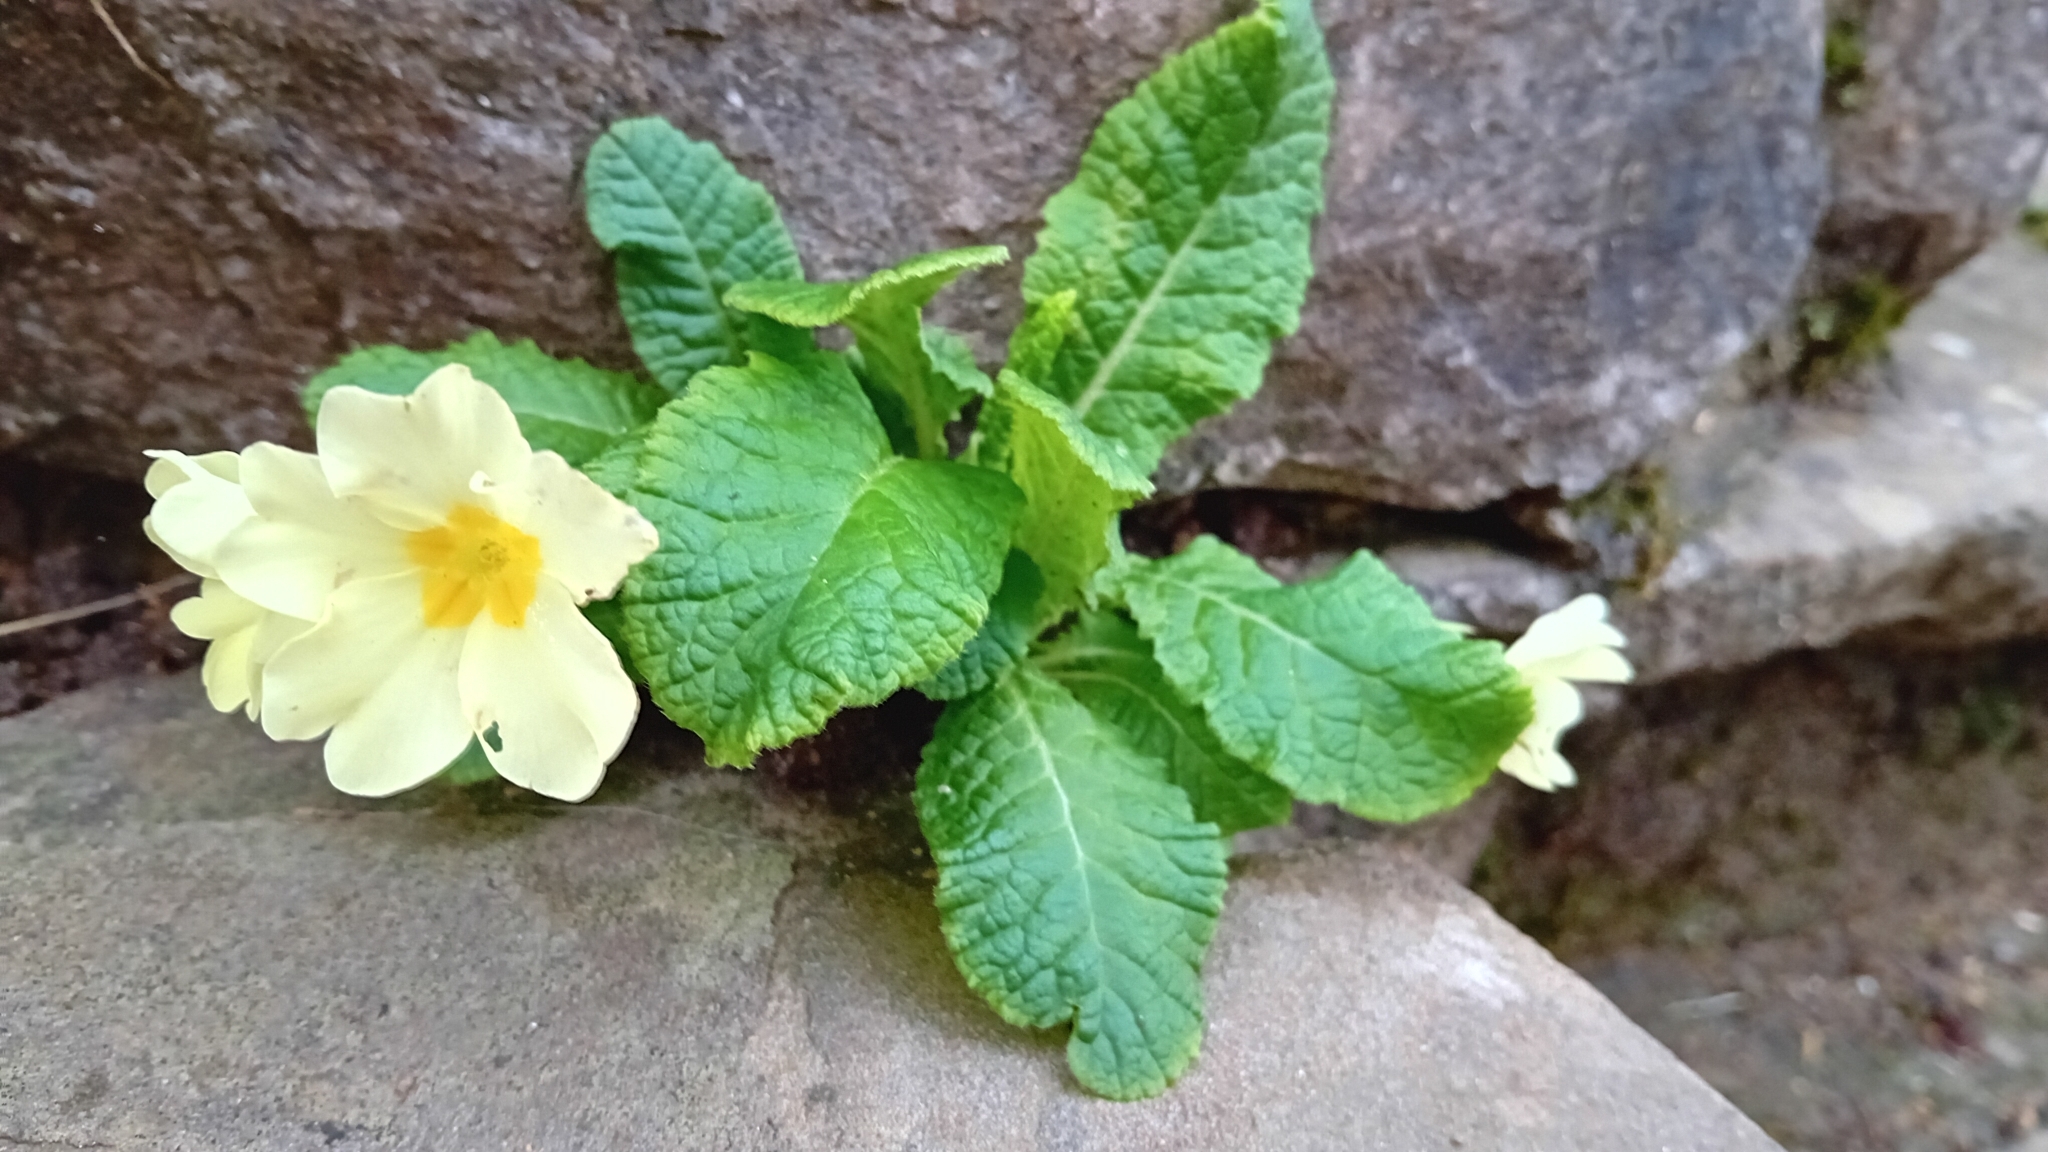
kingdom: Plantae
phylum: Tracheophyta
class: Magnoliopsida
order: Ericales
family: Primulaceae
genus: Primula
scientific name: Primula vulgaris
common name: Primrose
